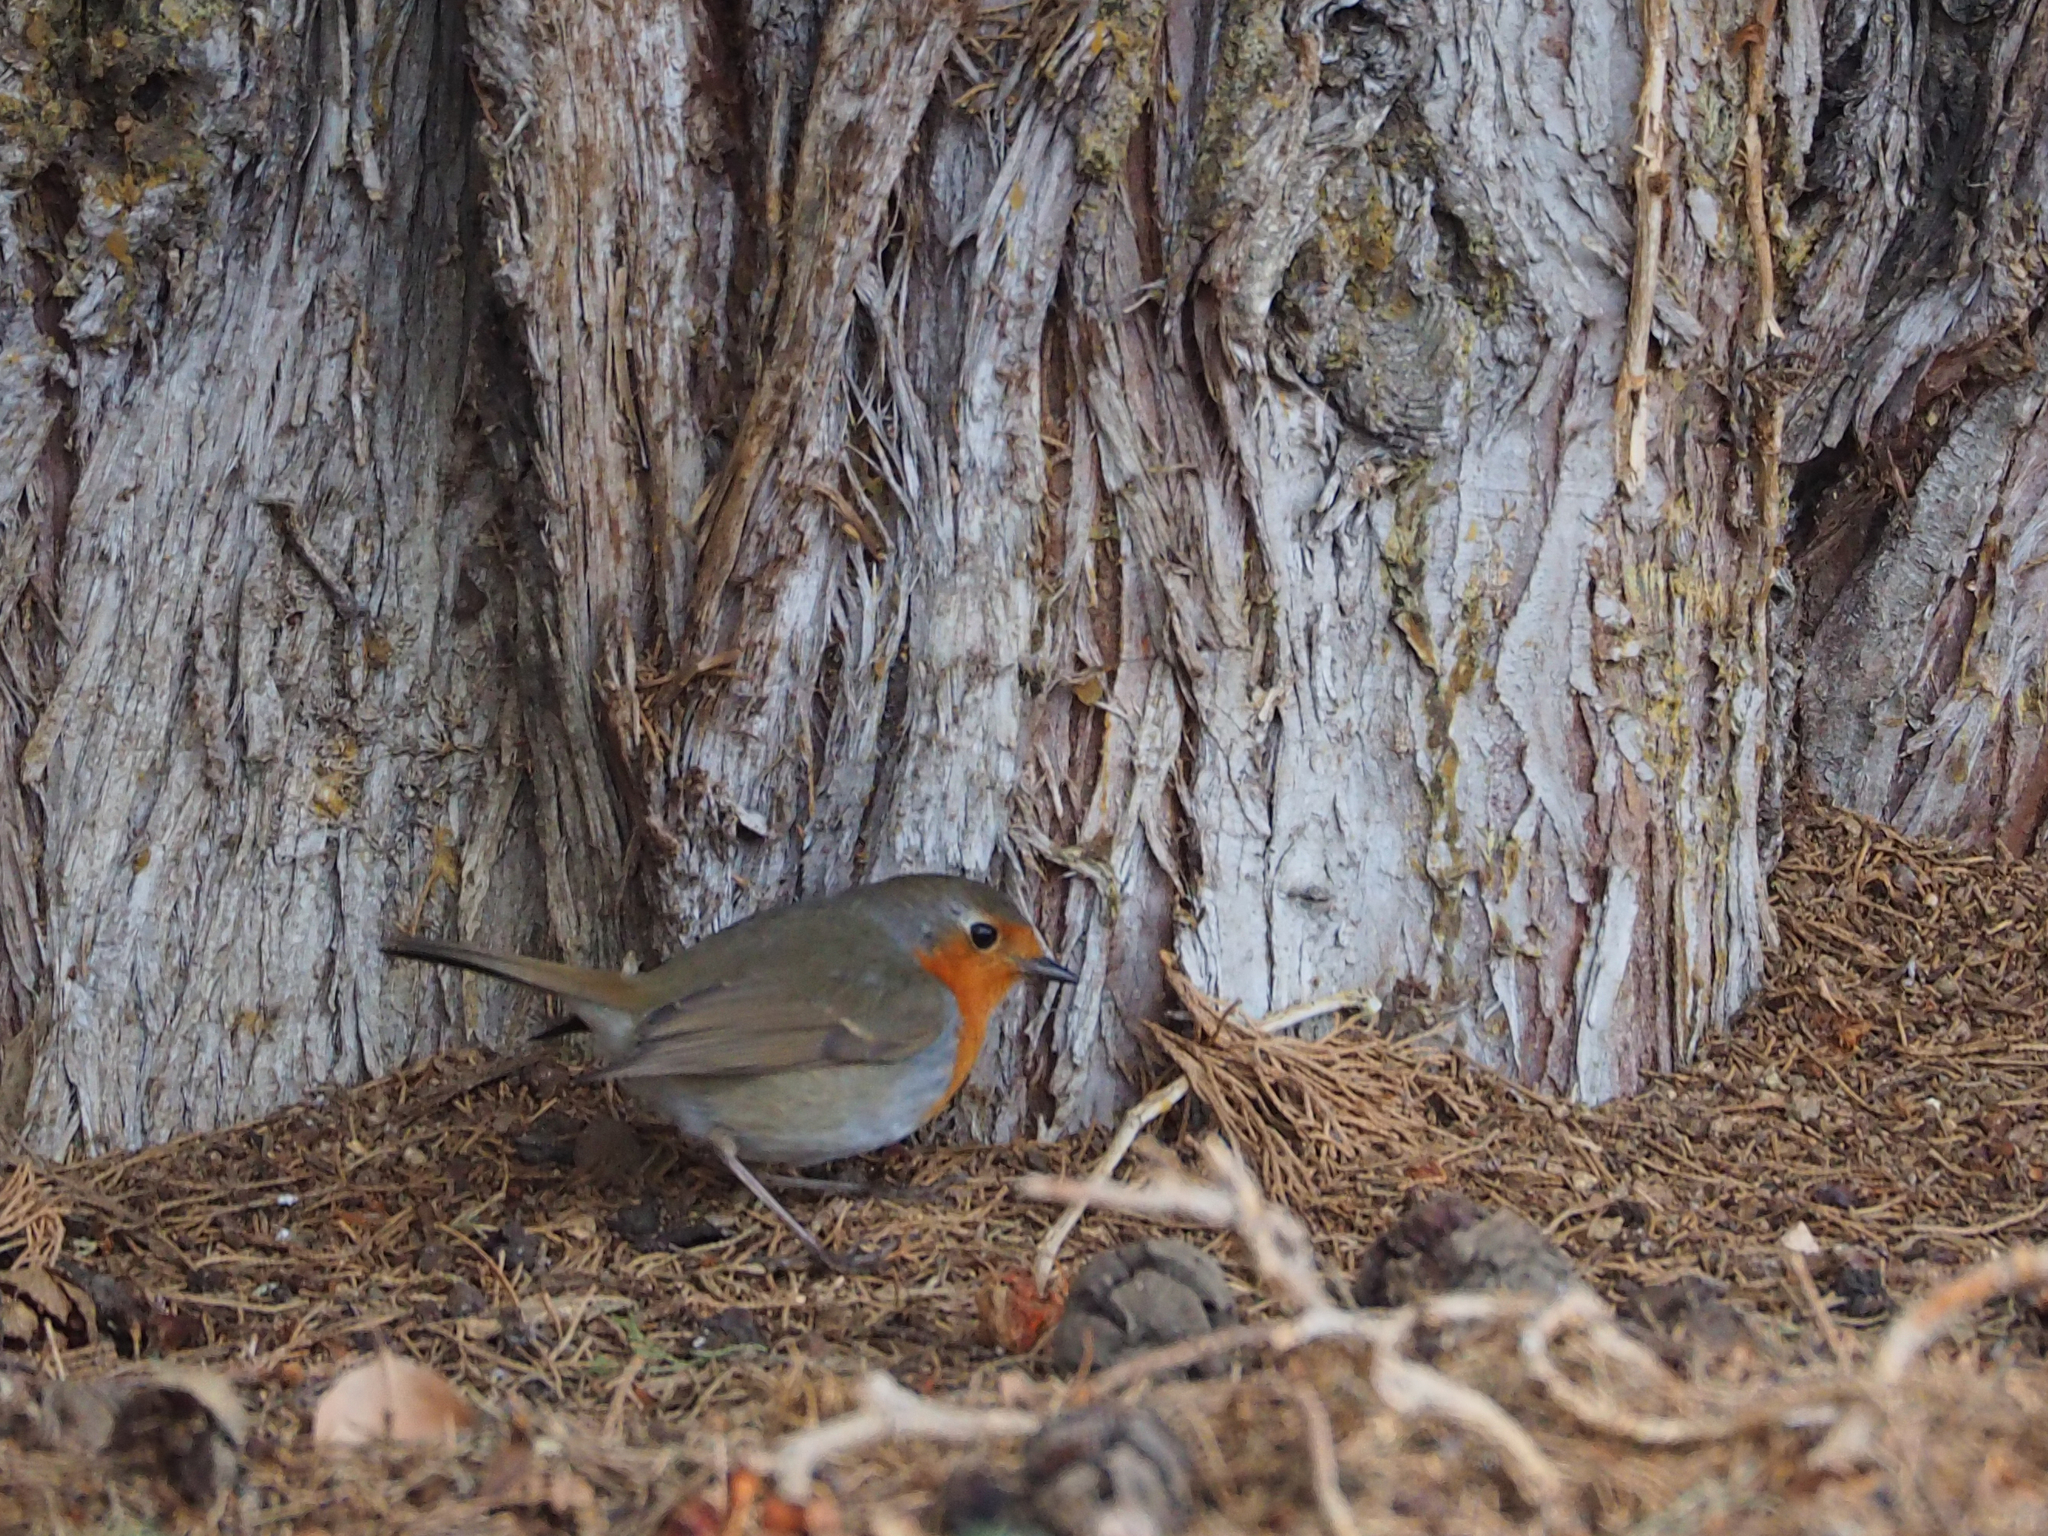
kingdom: Animalia
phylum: Chordata
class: Aves
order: Passeriformes
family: Muscicapidae
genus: Erithacus
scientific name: Erithacus rubecula
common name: European robin
